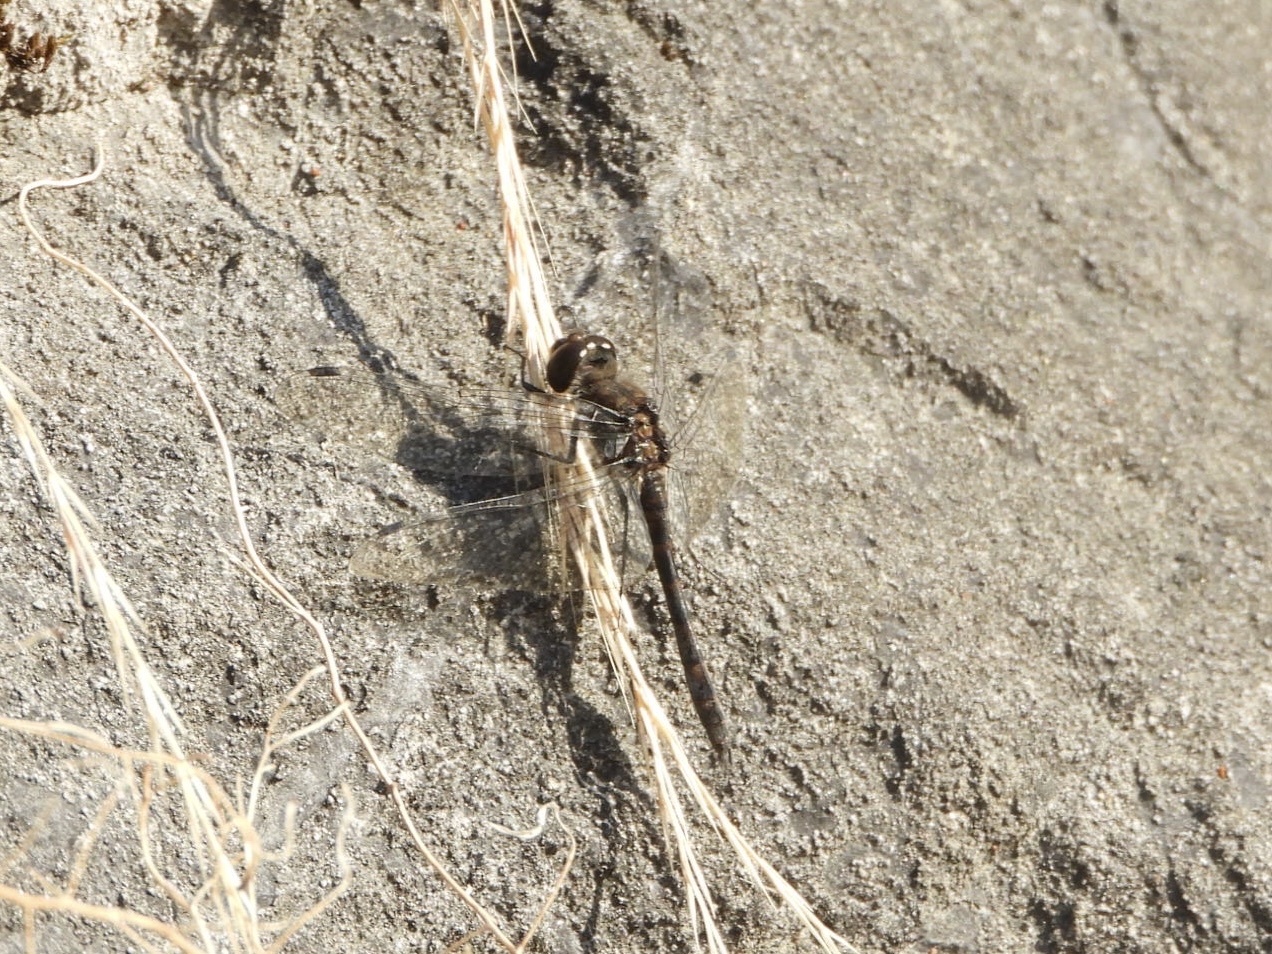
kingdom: Animalia
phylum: Arthropoda
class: Insecta
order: Odonata
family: Libellulidae
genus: Sympetrum
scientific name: Sympetrum danae
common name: Black darter
